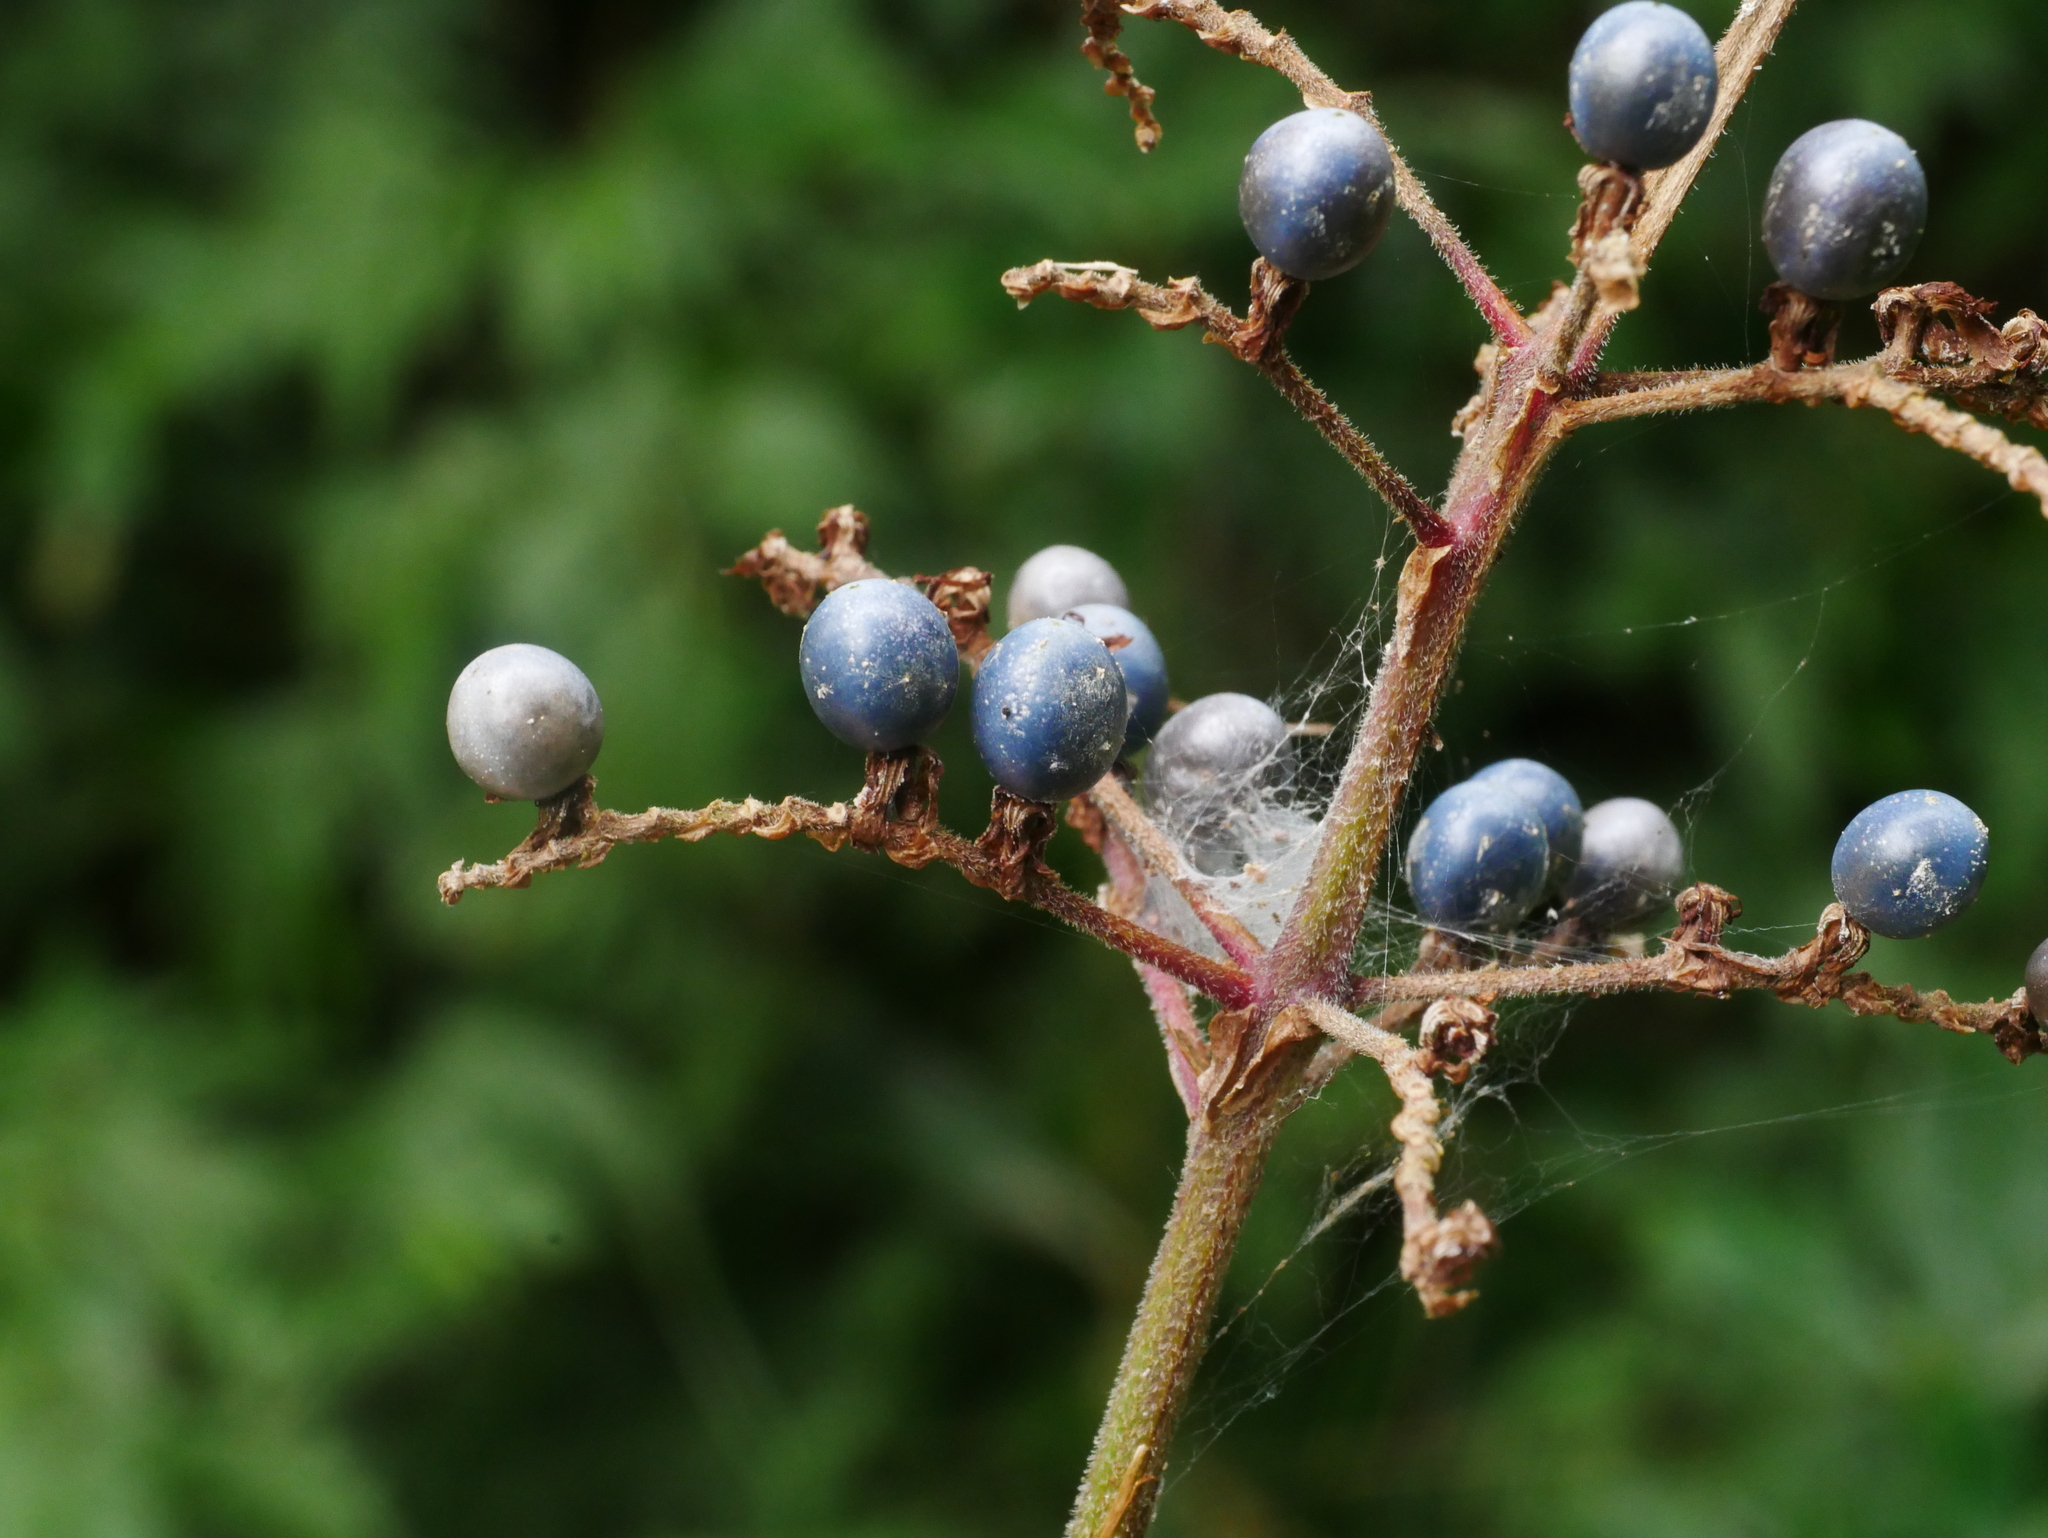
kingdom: Plantae
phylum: Tracheophyta
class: Liliopsida
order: Commelinales
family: Commelinaceae
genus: Pollia
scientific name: Pollia japonica
